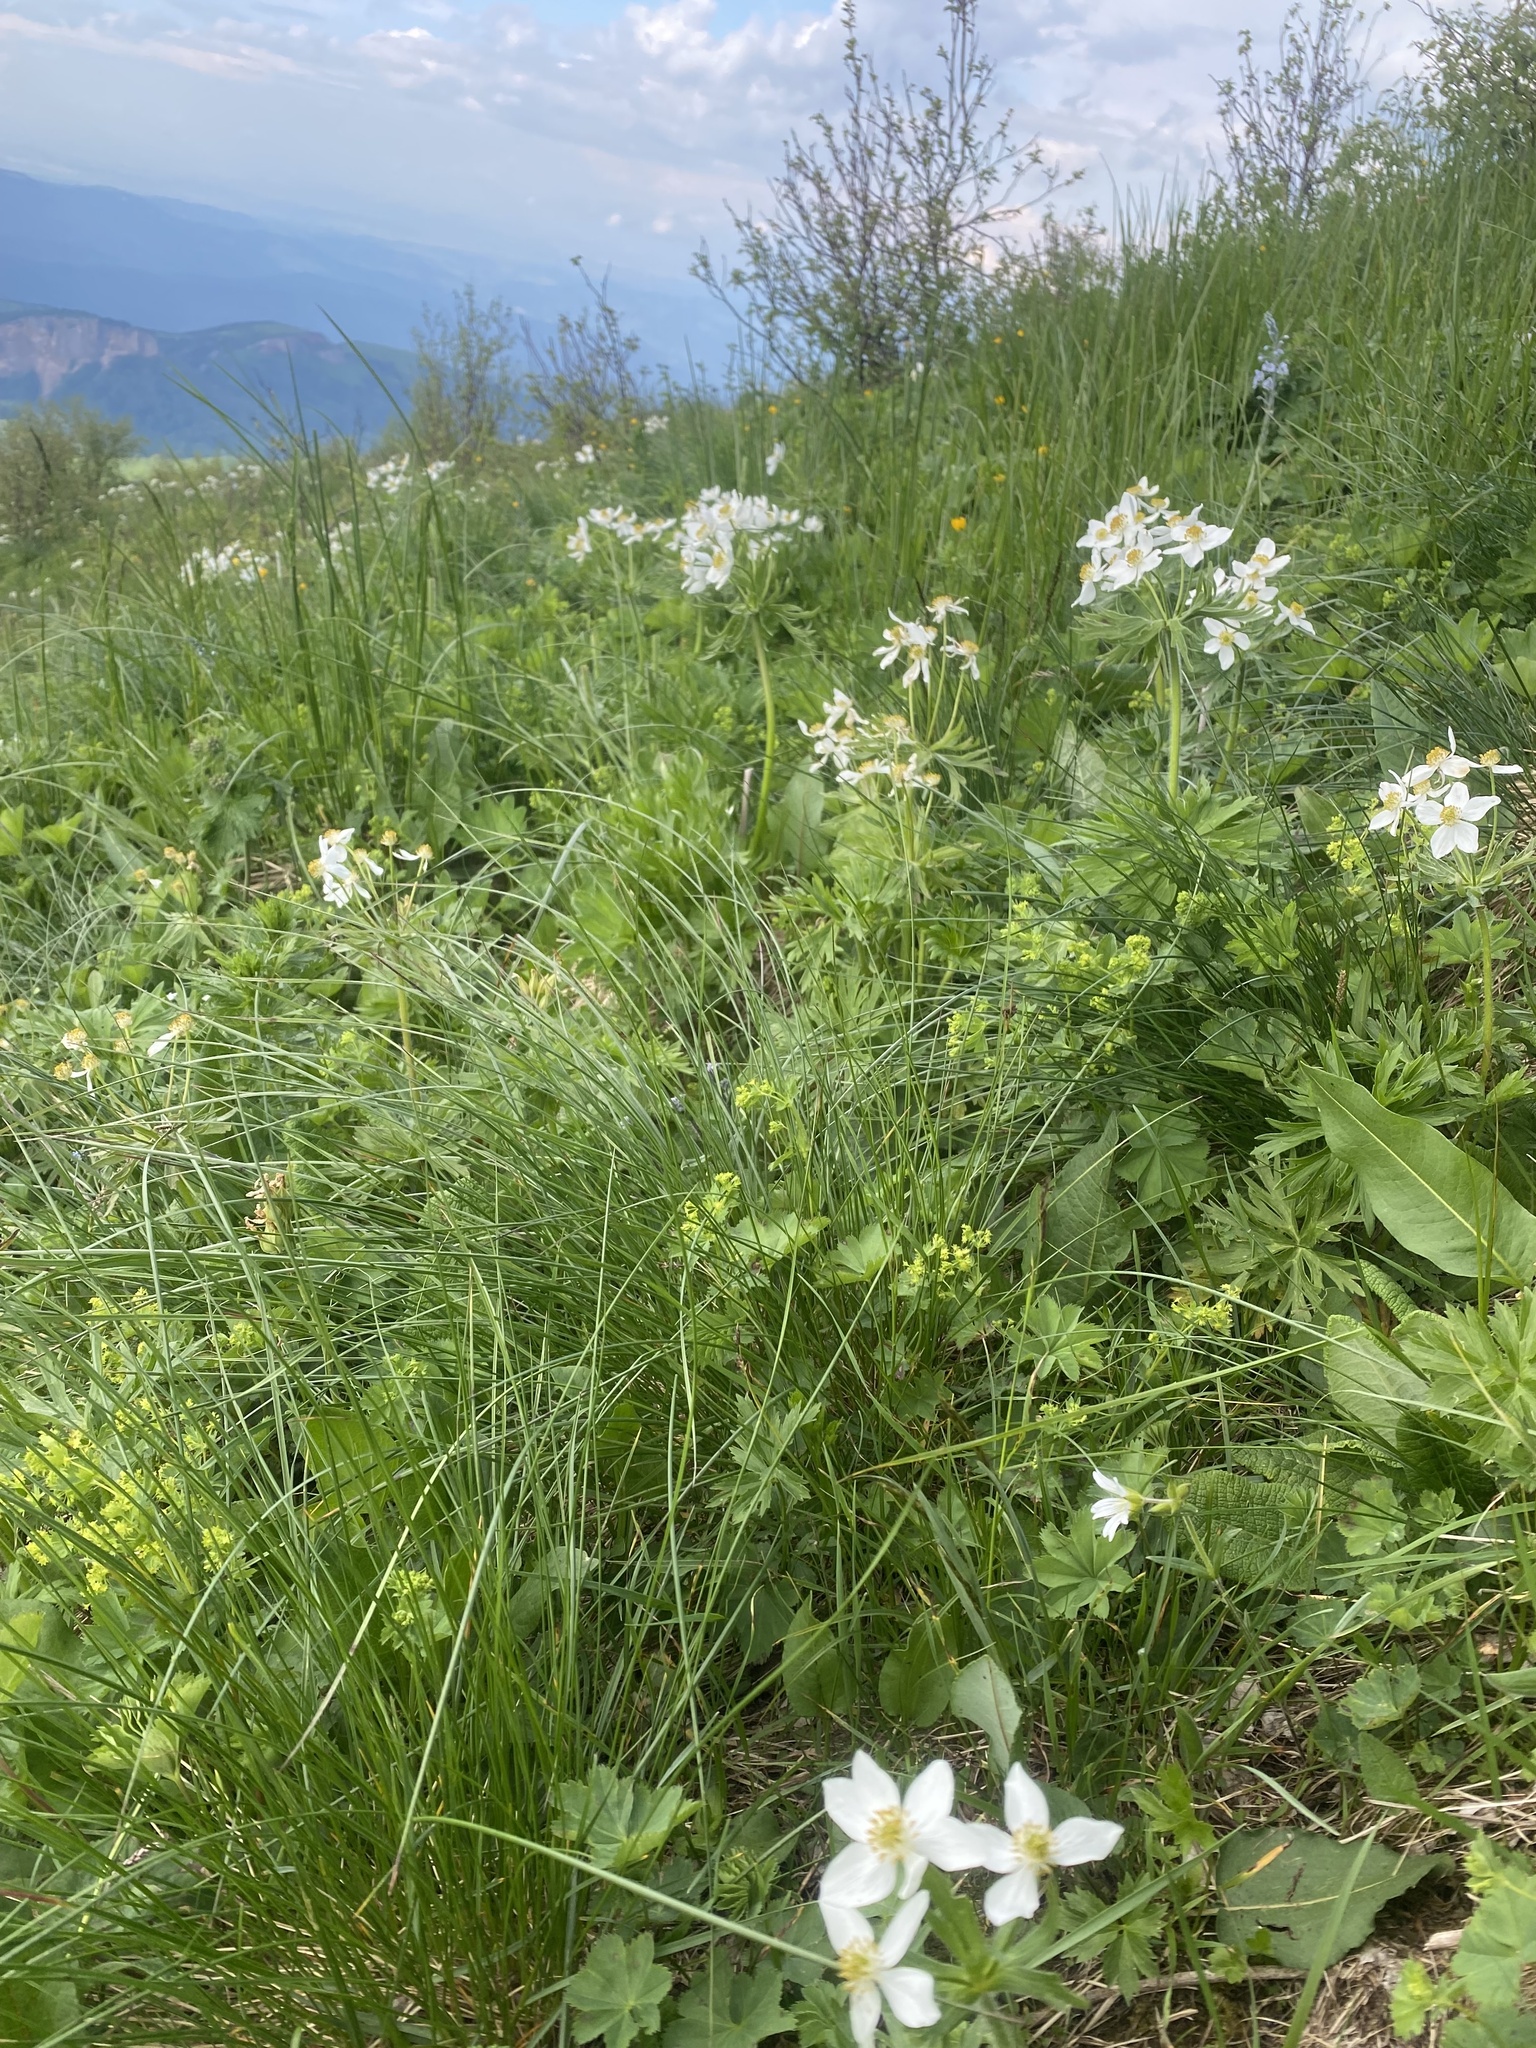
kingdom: Plantae
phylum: Tracheophyta
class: Magnoliopsida
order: Ranunculales
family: Ranunculaceae
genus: Anemonastrum
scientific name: Anemonastrum narcissiflorum
